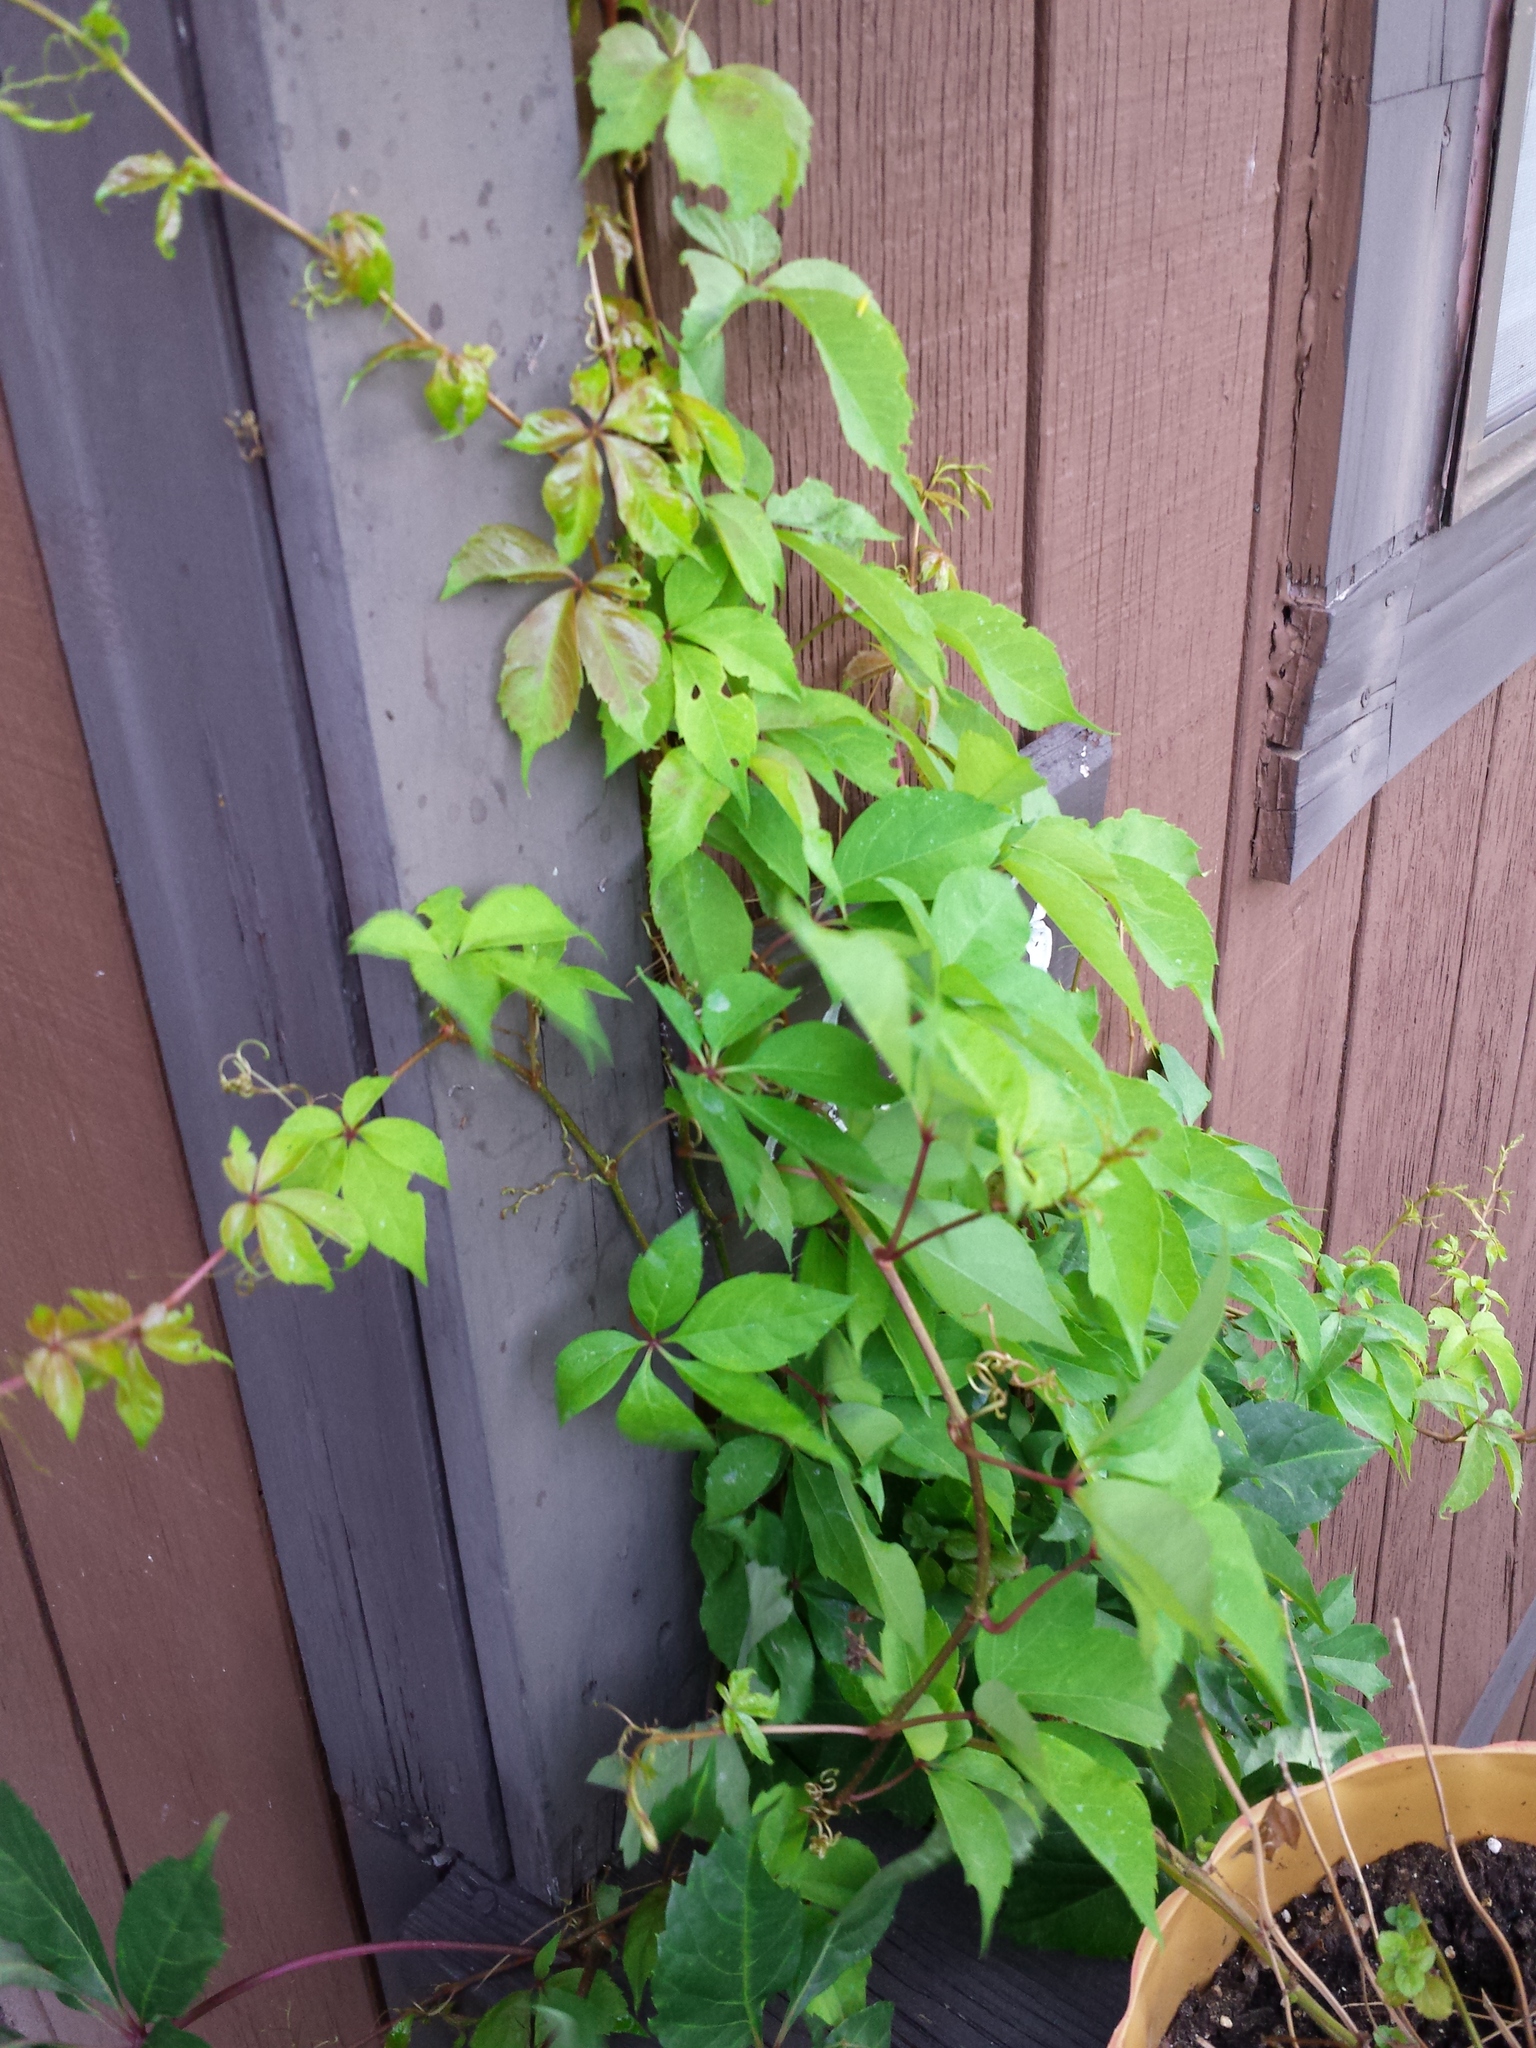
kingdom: Plantae
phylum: Tracheophyta
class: Magnoliopsida
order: Vitales
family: Vitaceae
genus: Parthenocissus
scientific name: Parthenocissus quinquefolia
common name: Virginia-creeper
